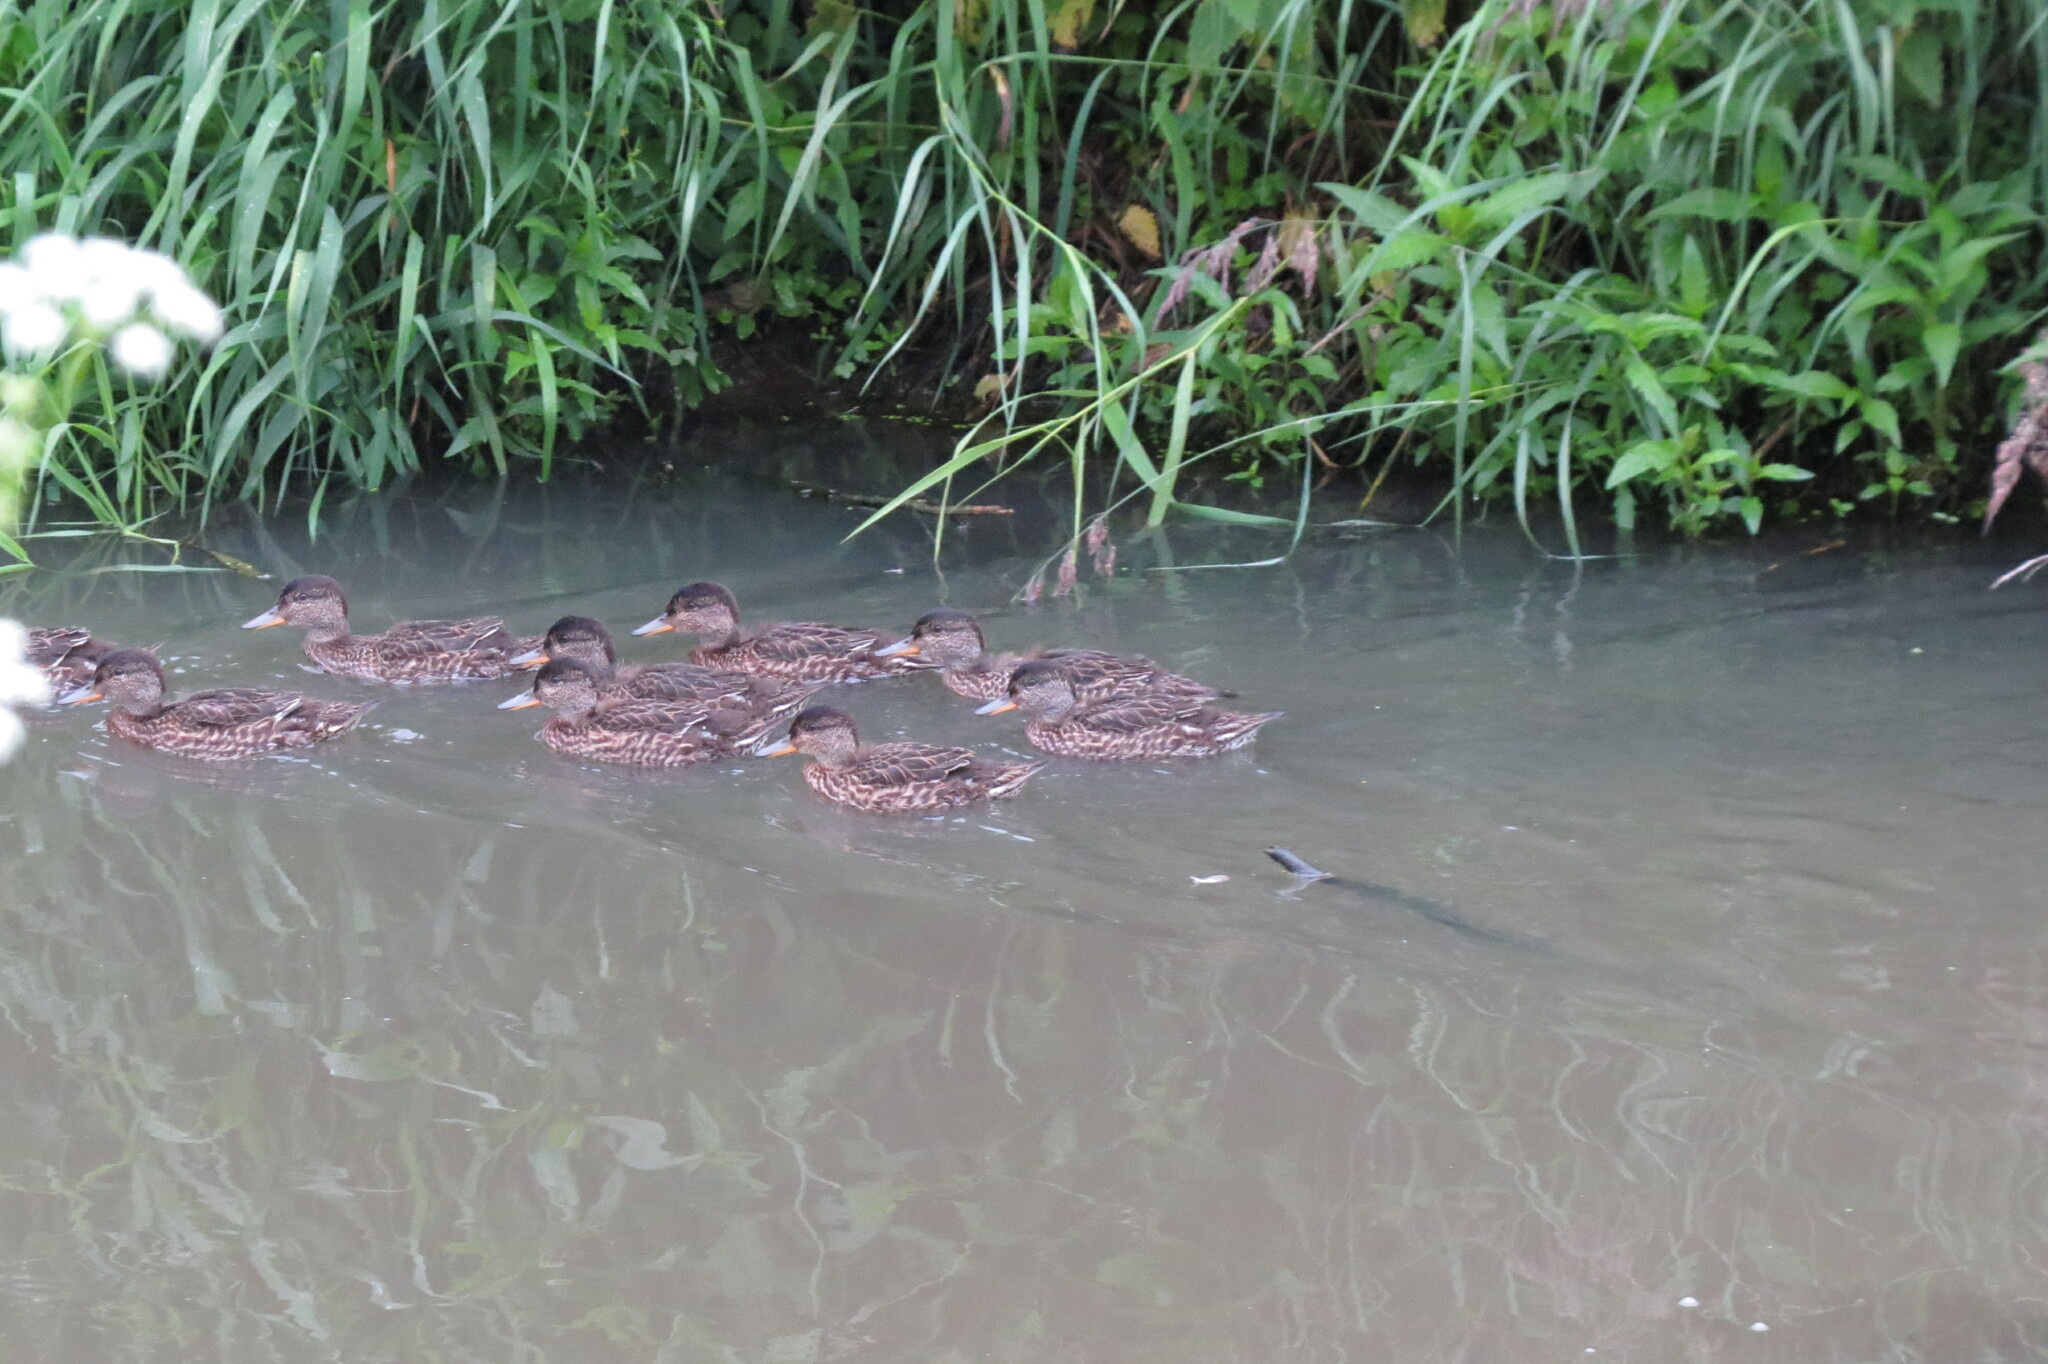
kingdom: Animalia
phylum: Chordata
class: Aves
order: Anseriformes
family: Anatidae
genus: Anas
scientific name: Anas crecca
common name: Eurasian teal
